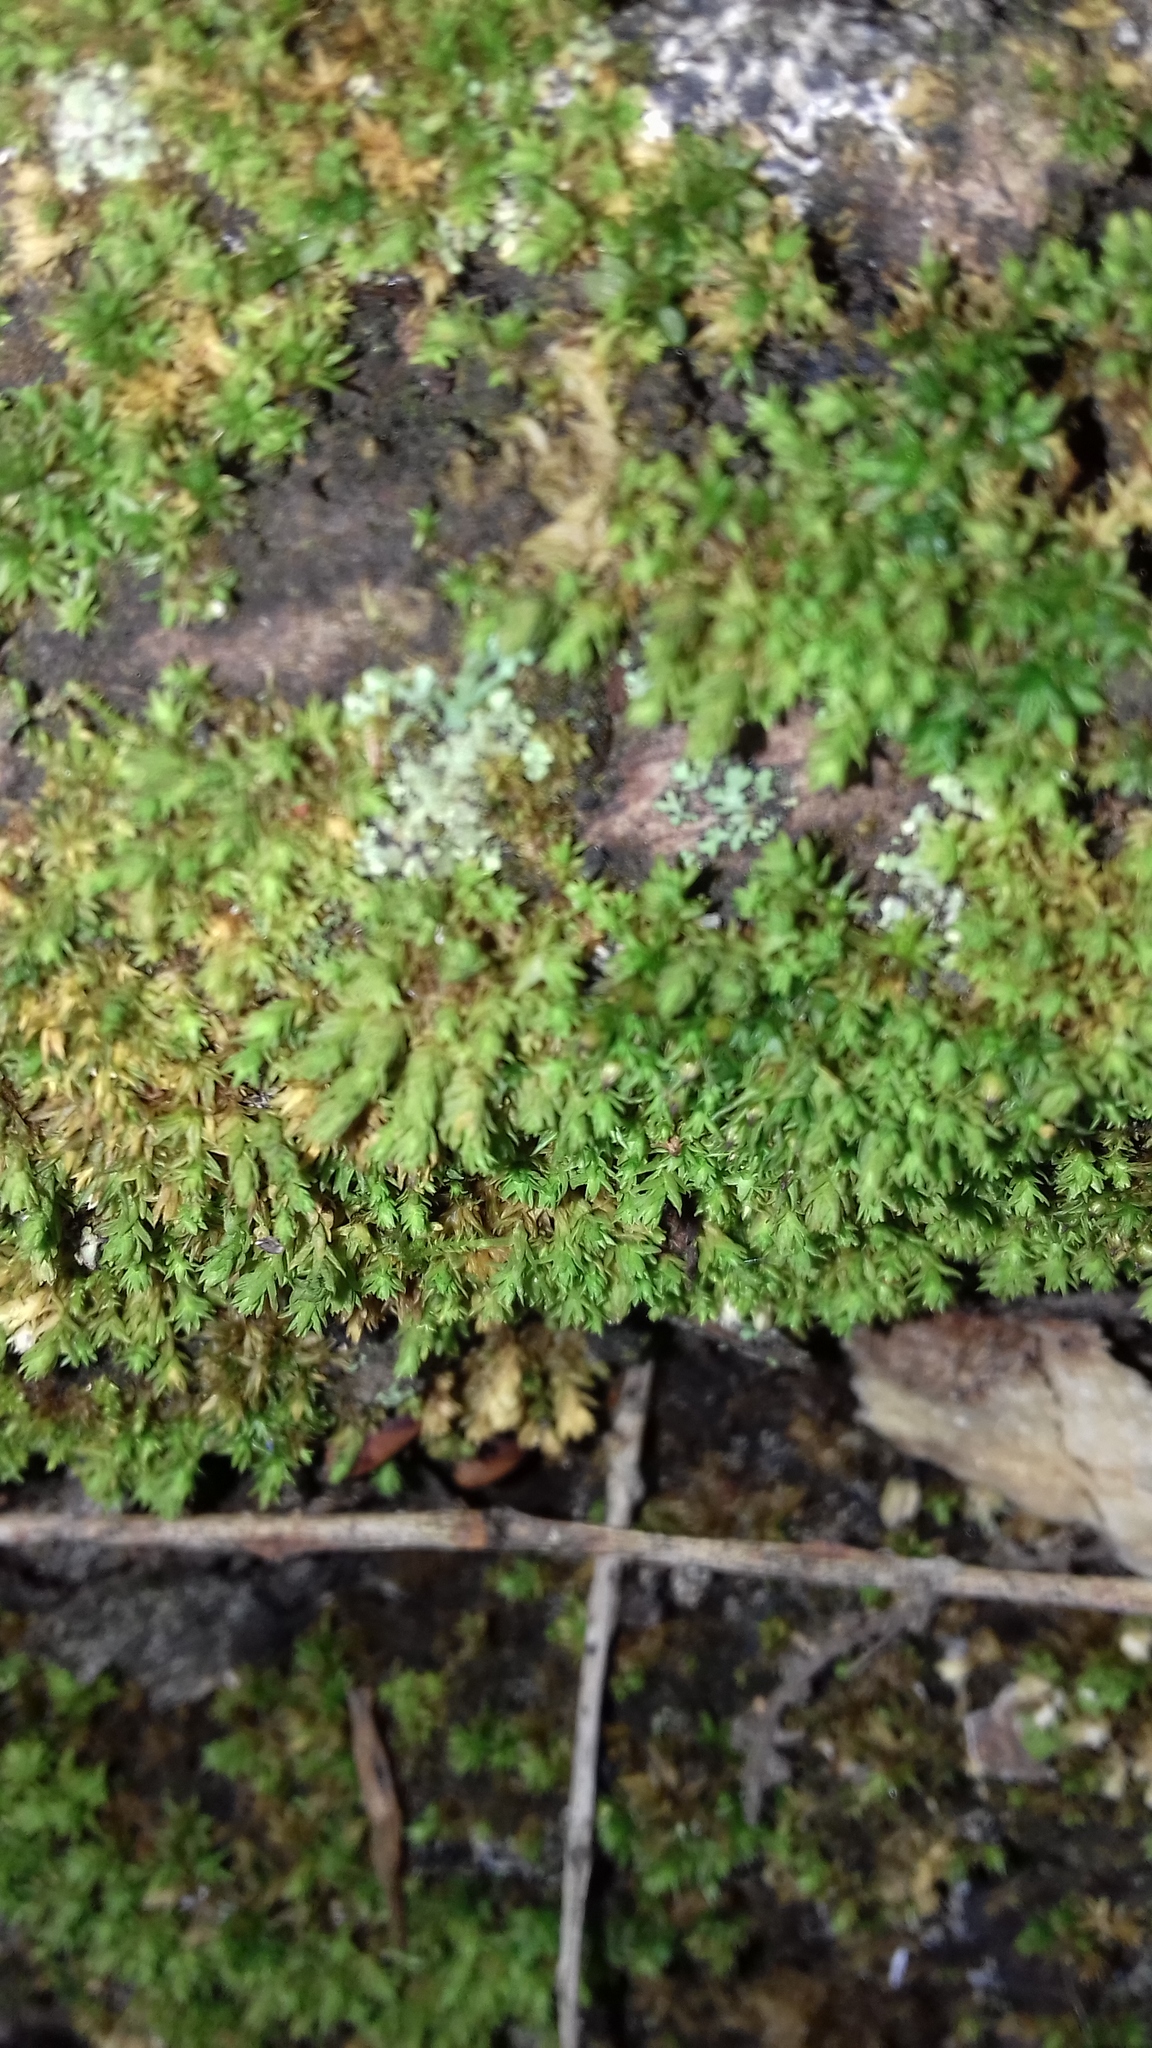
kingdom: Plantae
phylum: Bryophyta
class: Bryopsida
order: Orthotrichales
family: Orthotrichaceae
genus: Nyholmiella
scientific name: Nyholmiella obtusifolia
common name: Blunt-leaved bristle-moss
